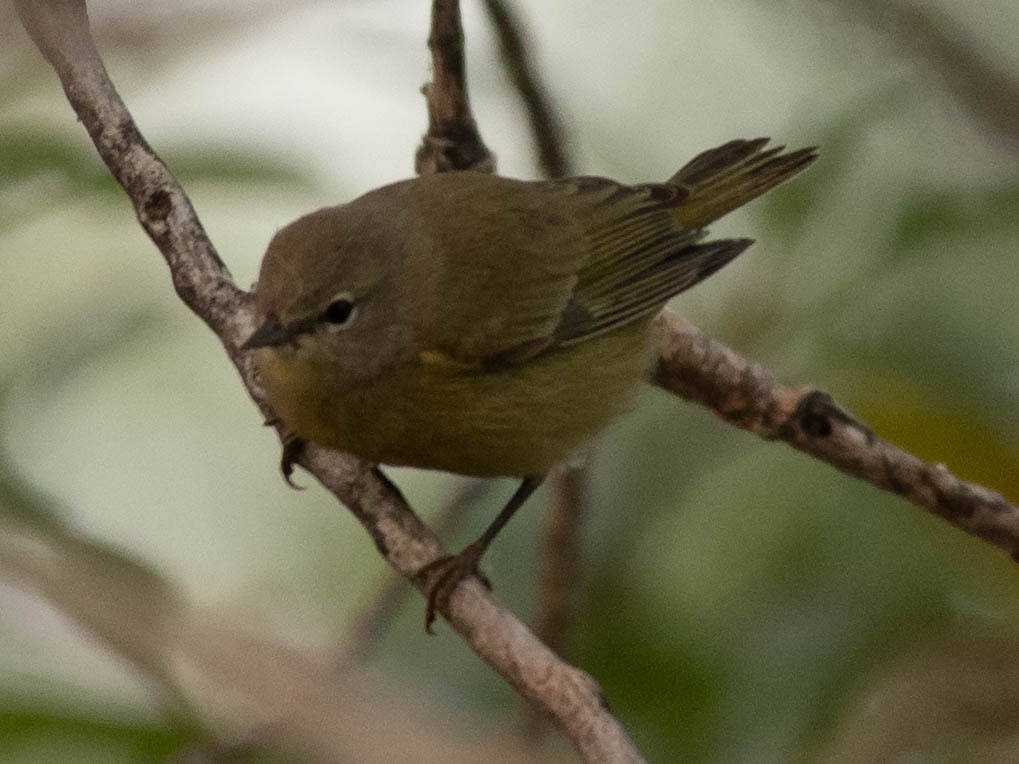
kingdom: Animalia
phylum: Chordata
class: Aves
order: Passeriformes
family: Parulidae
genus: Leiothlypis
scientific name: Leiothlypis celata
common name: Orange-crowned warbler
